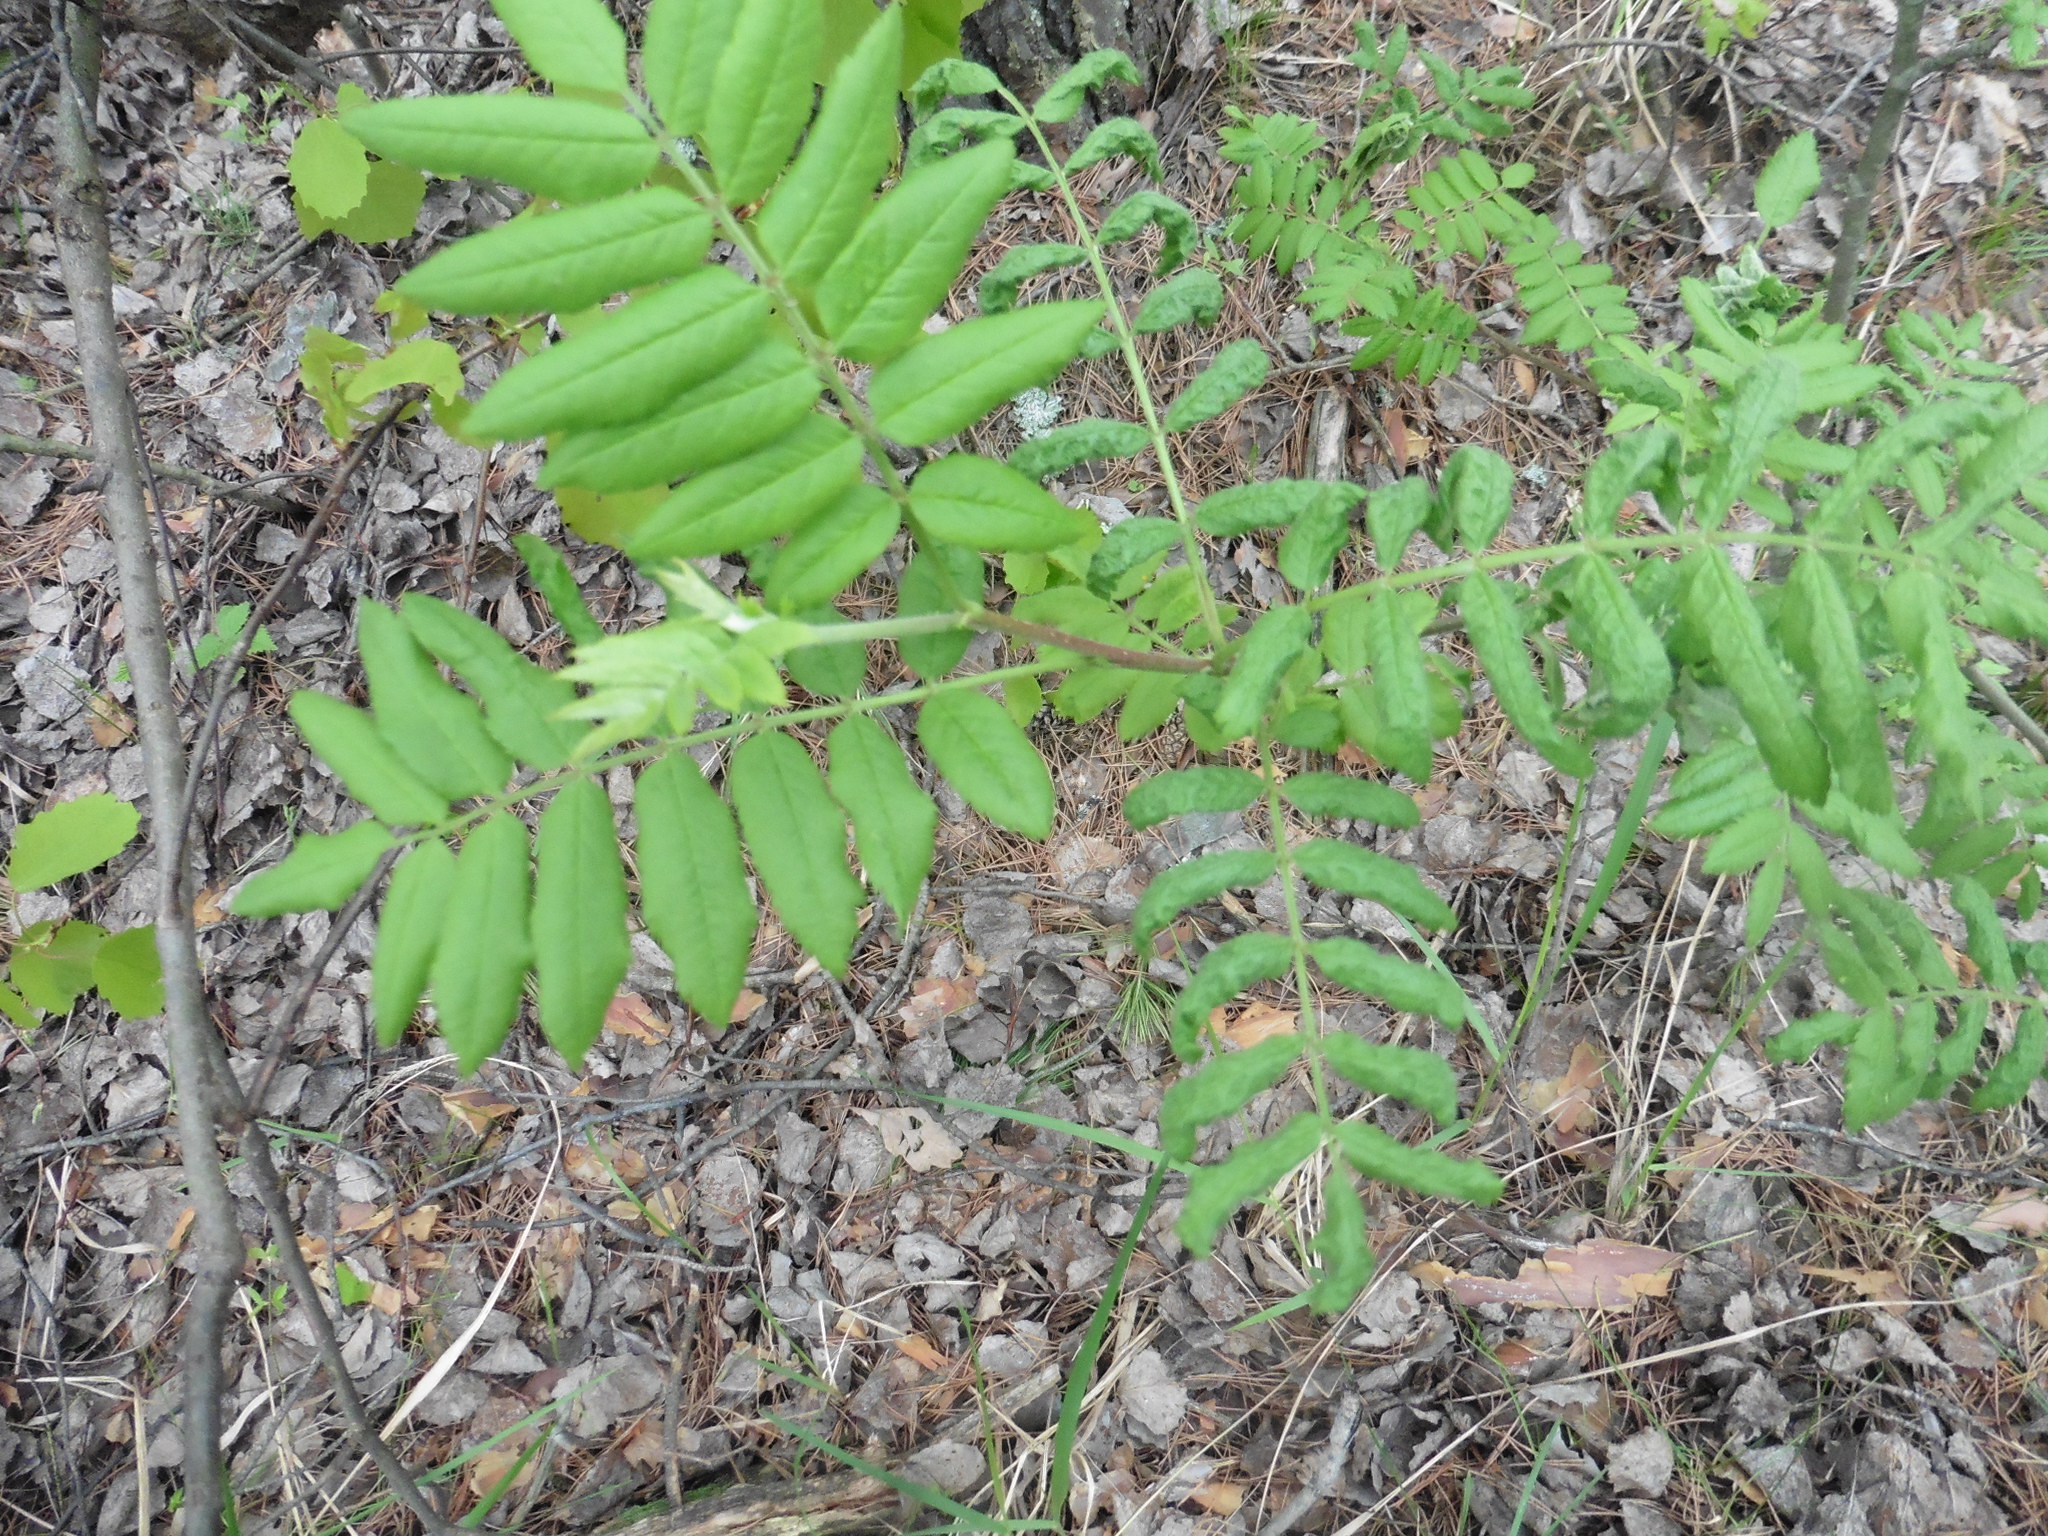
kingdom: Plantae
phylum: Tracheophyta
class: Magnoliopsida
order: Rosales
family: Rosaceae
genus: Sorbus
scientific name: Sorbus aucuparia
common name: Rowan
